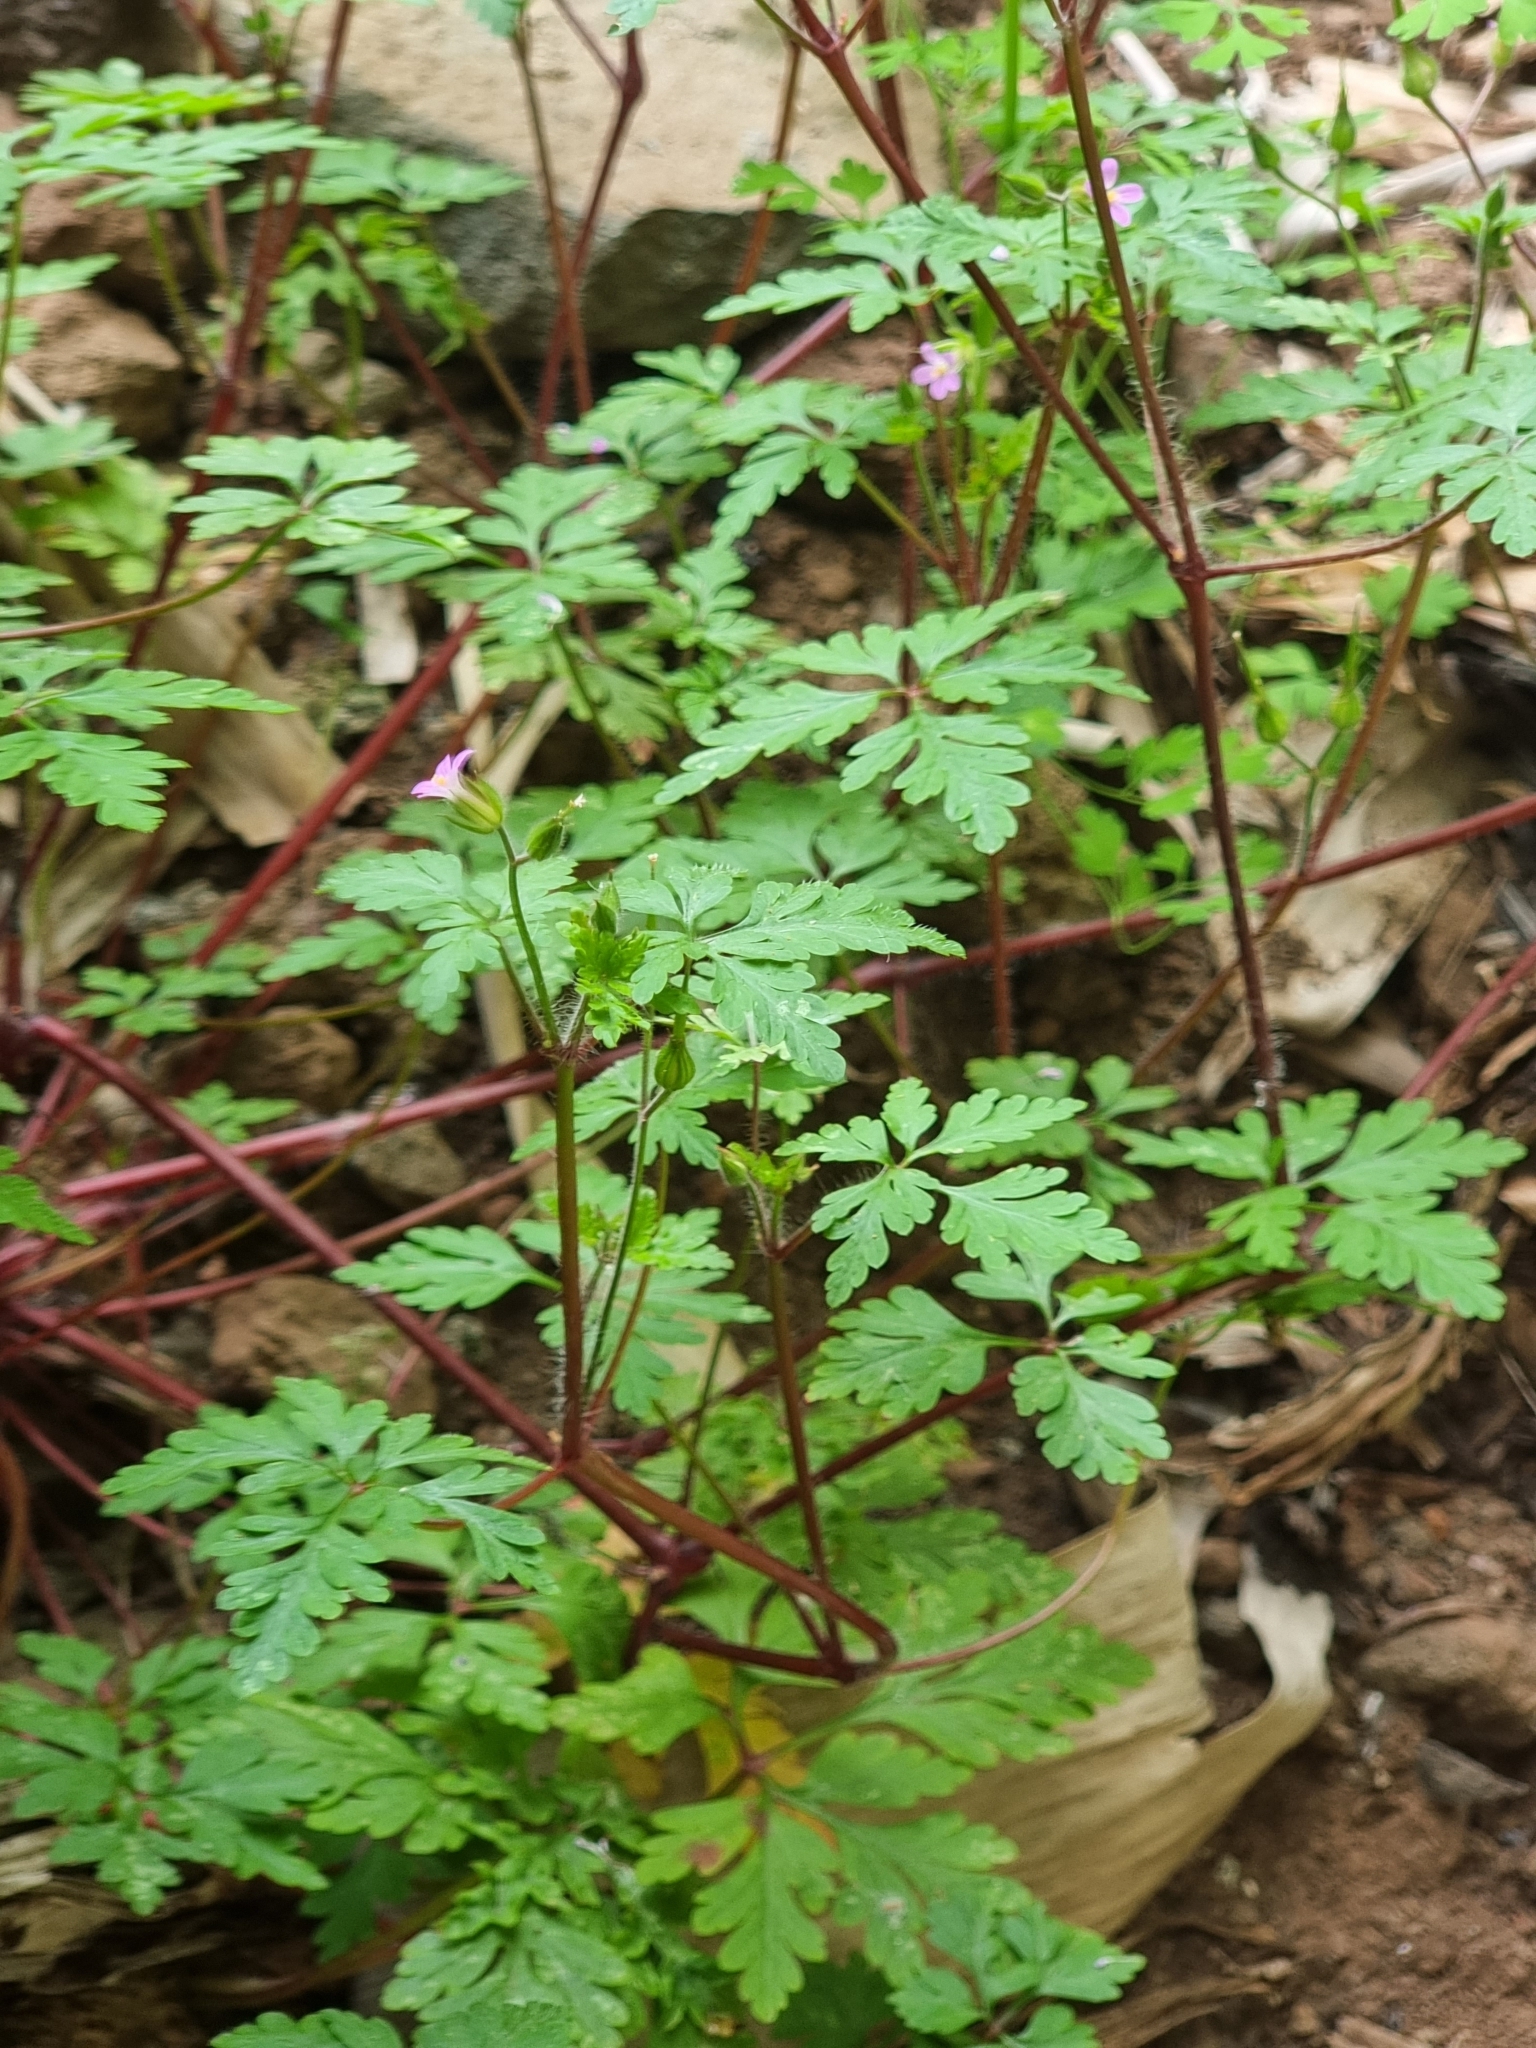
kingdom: Plantae
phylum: Tracheophyta
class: Magnoliopsida
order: Geraniales
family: Geraniaceae
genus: Geranium
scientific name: Geranium robertianum
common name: Herb-robert
